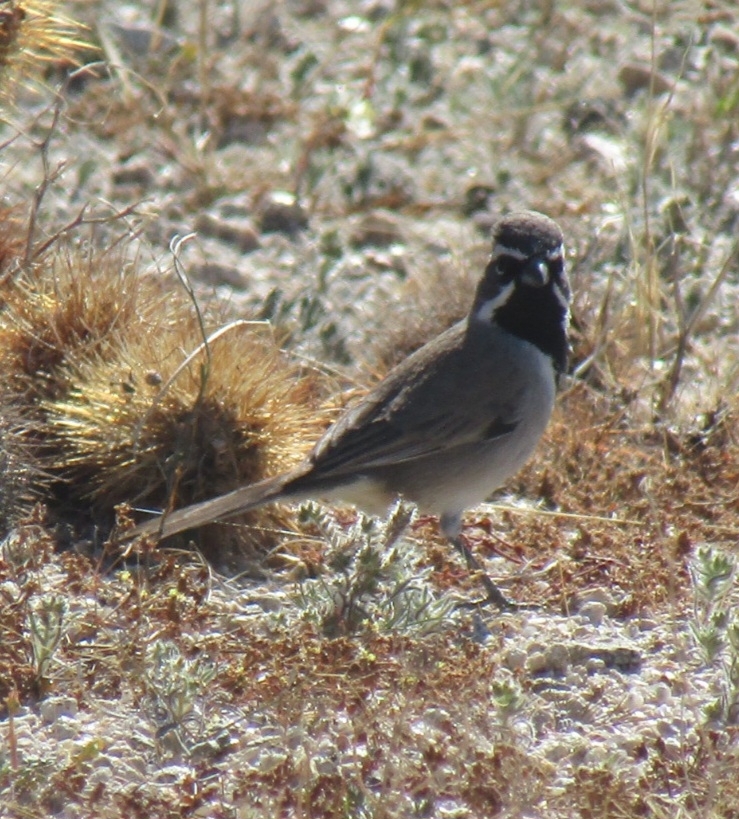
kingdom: Animalia
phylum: Chordata
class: Aves
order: Passeriformes
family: Passerellidae
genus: Amphispiza
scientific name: Amphispiza bilineata
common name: Black-throated sparrow
